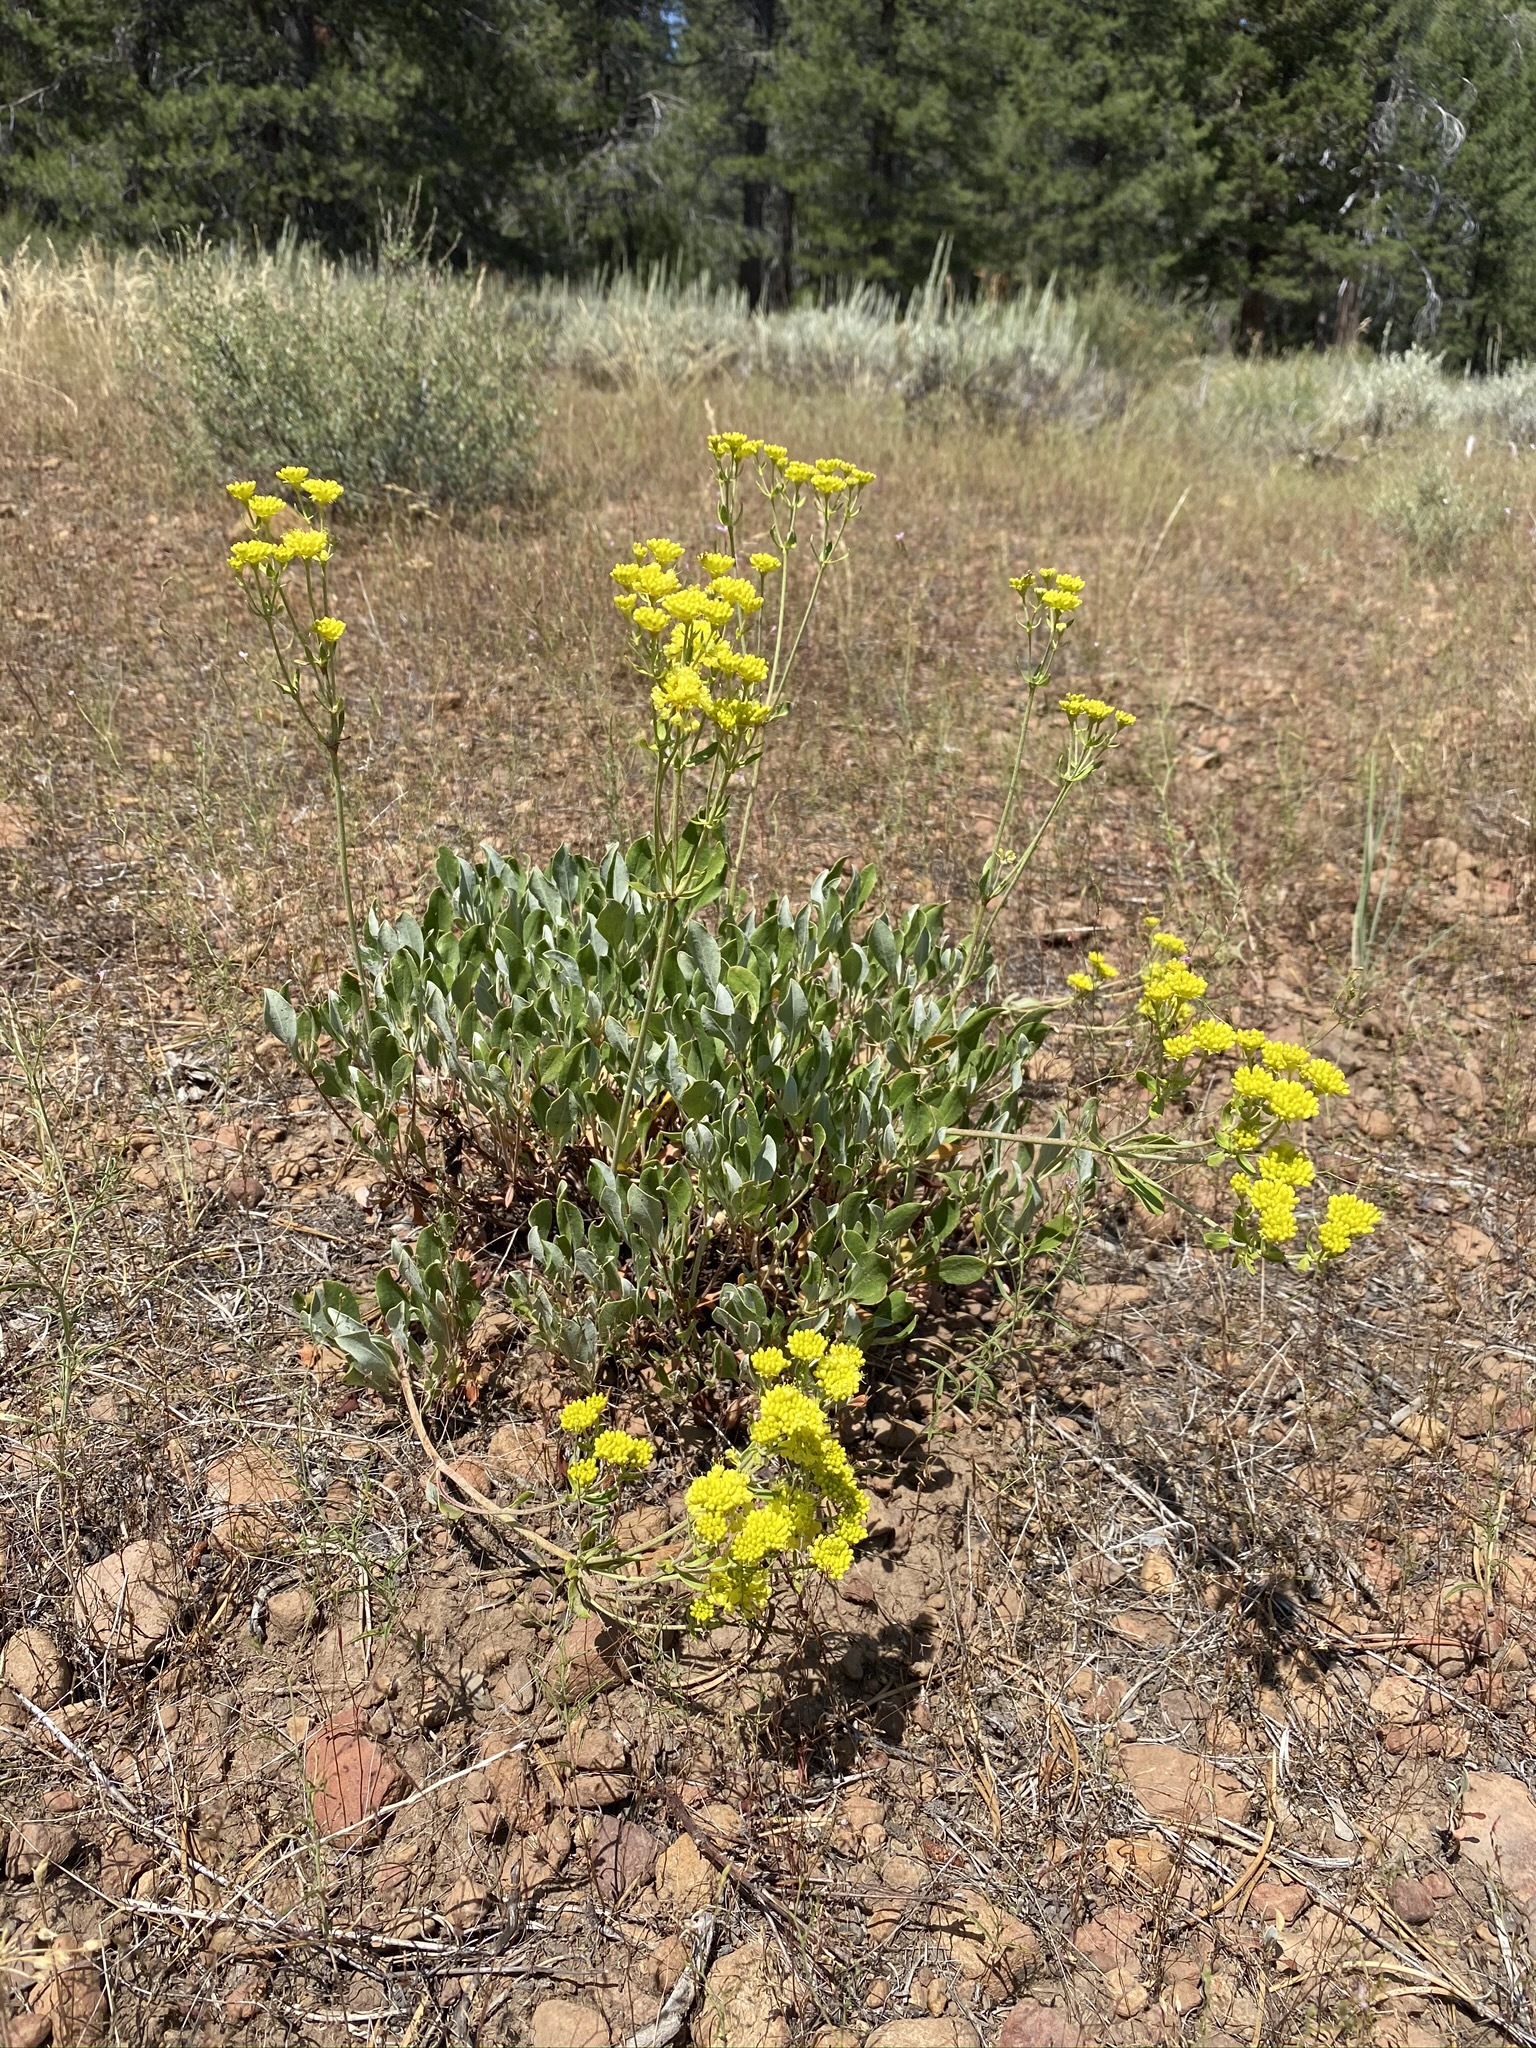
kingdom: Plantae
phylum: Tracheophyta
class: Magnoliopsida
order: Caryophyllales
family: Polygonaceae
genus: Eriogonum
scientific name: Eriogonum umbellatum
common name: Sulfur-buckwheat
